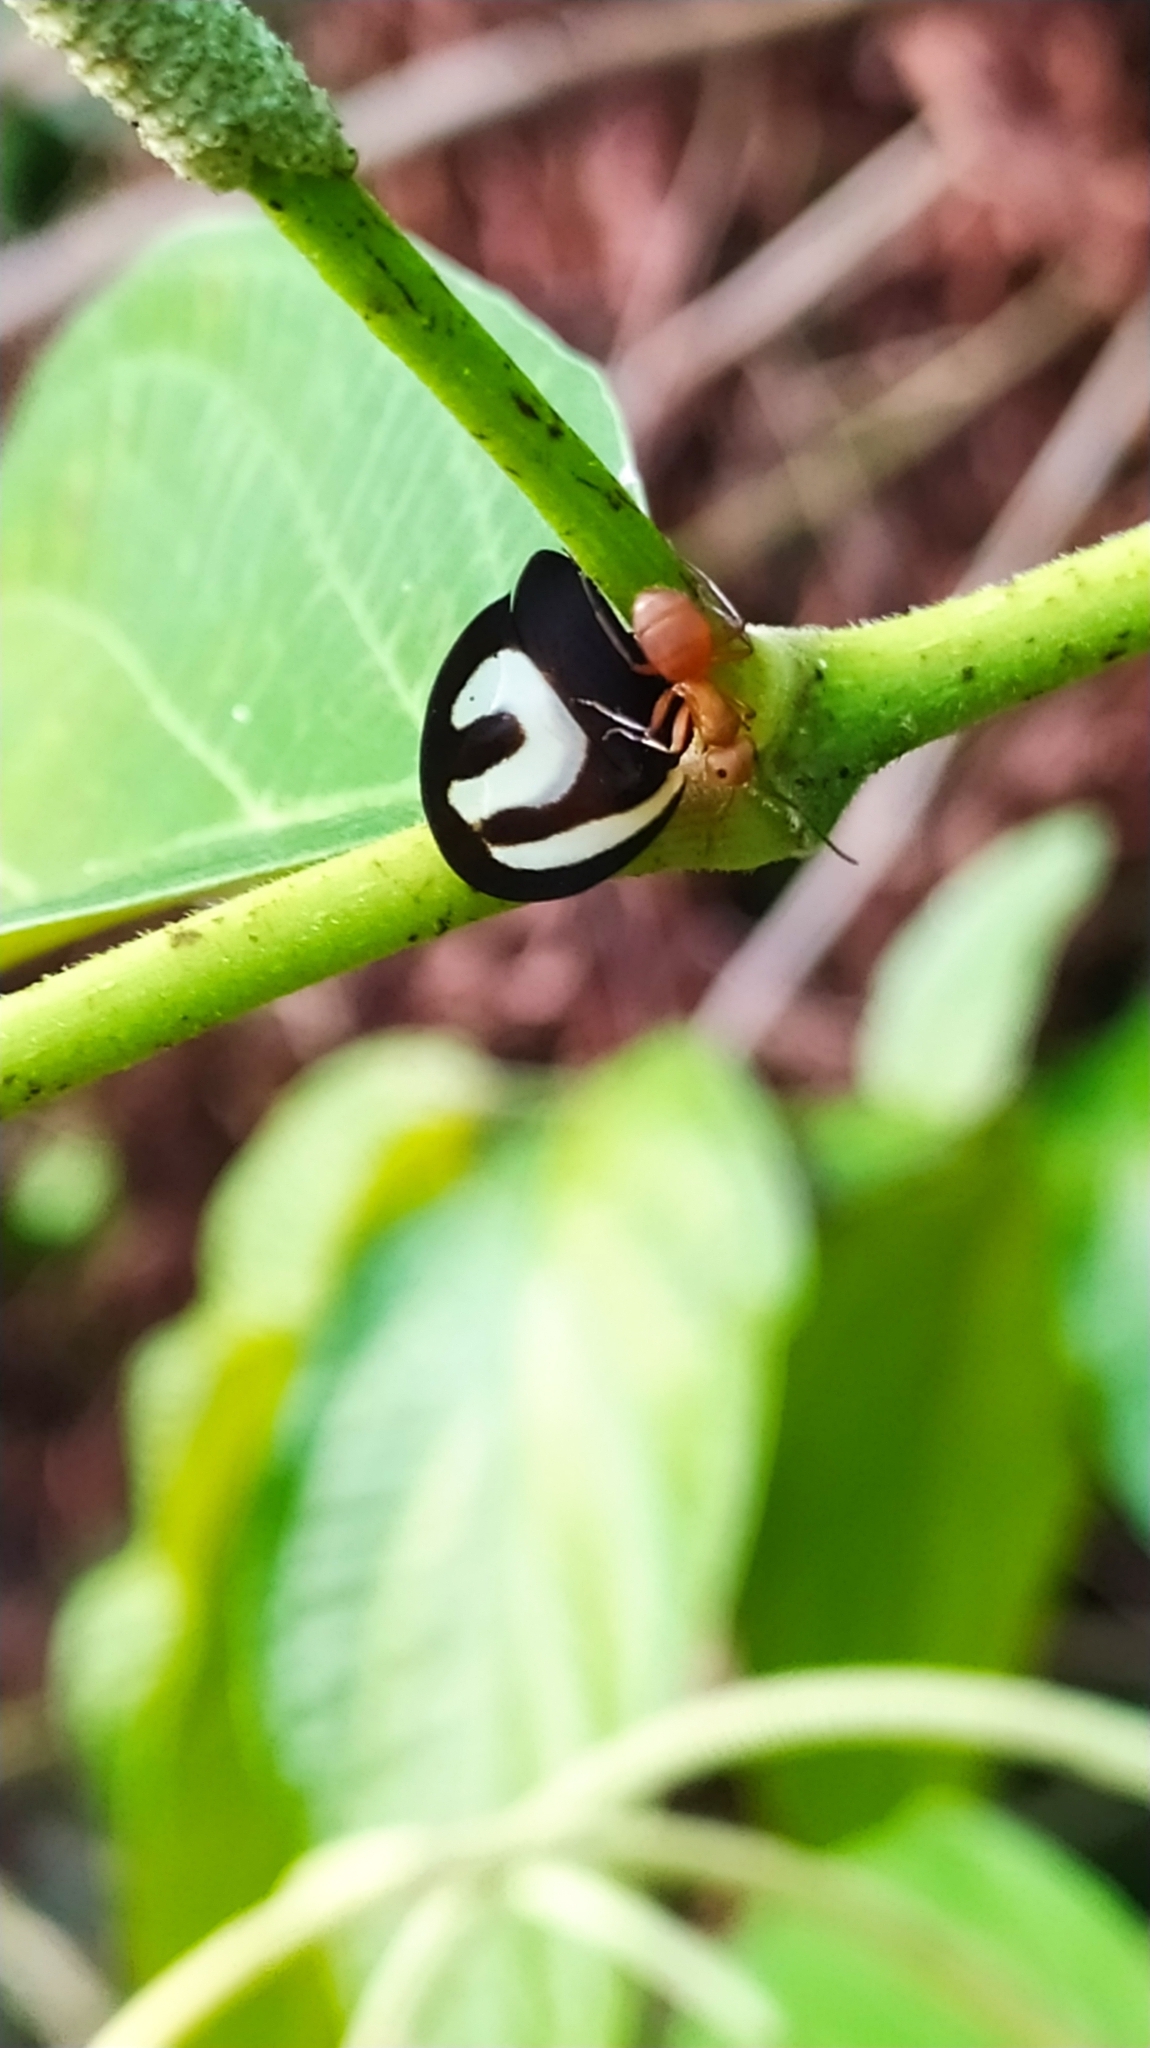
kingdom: Animalia
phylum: Arthropoda
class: Insecta
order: Hemiptera
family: Membracidae
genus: Membracis
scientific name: Membracis foliatafasciata
